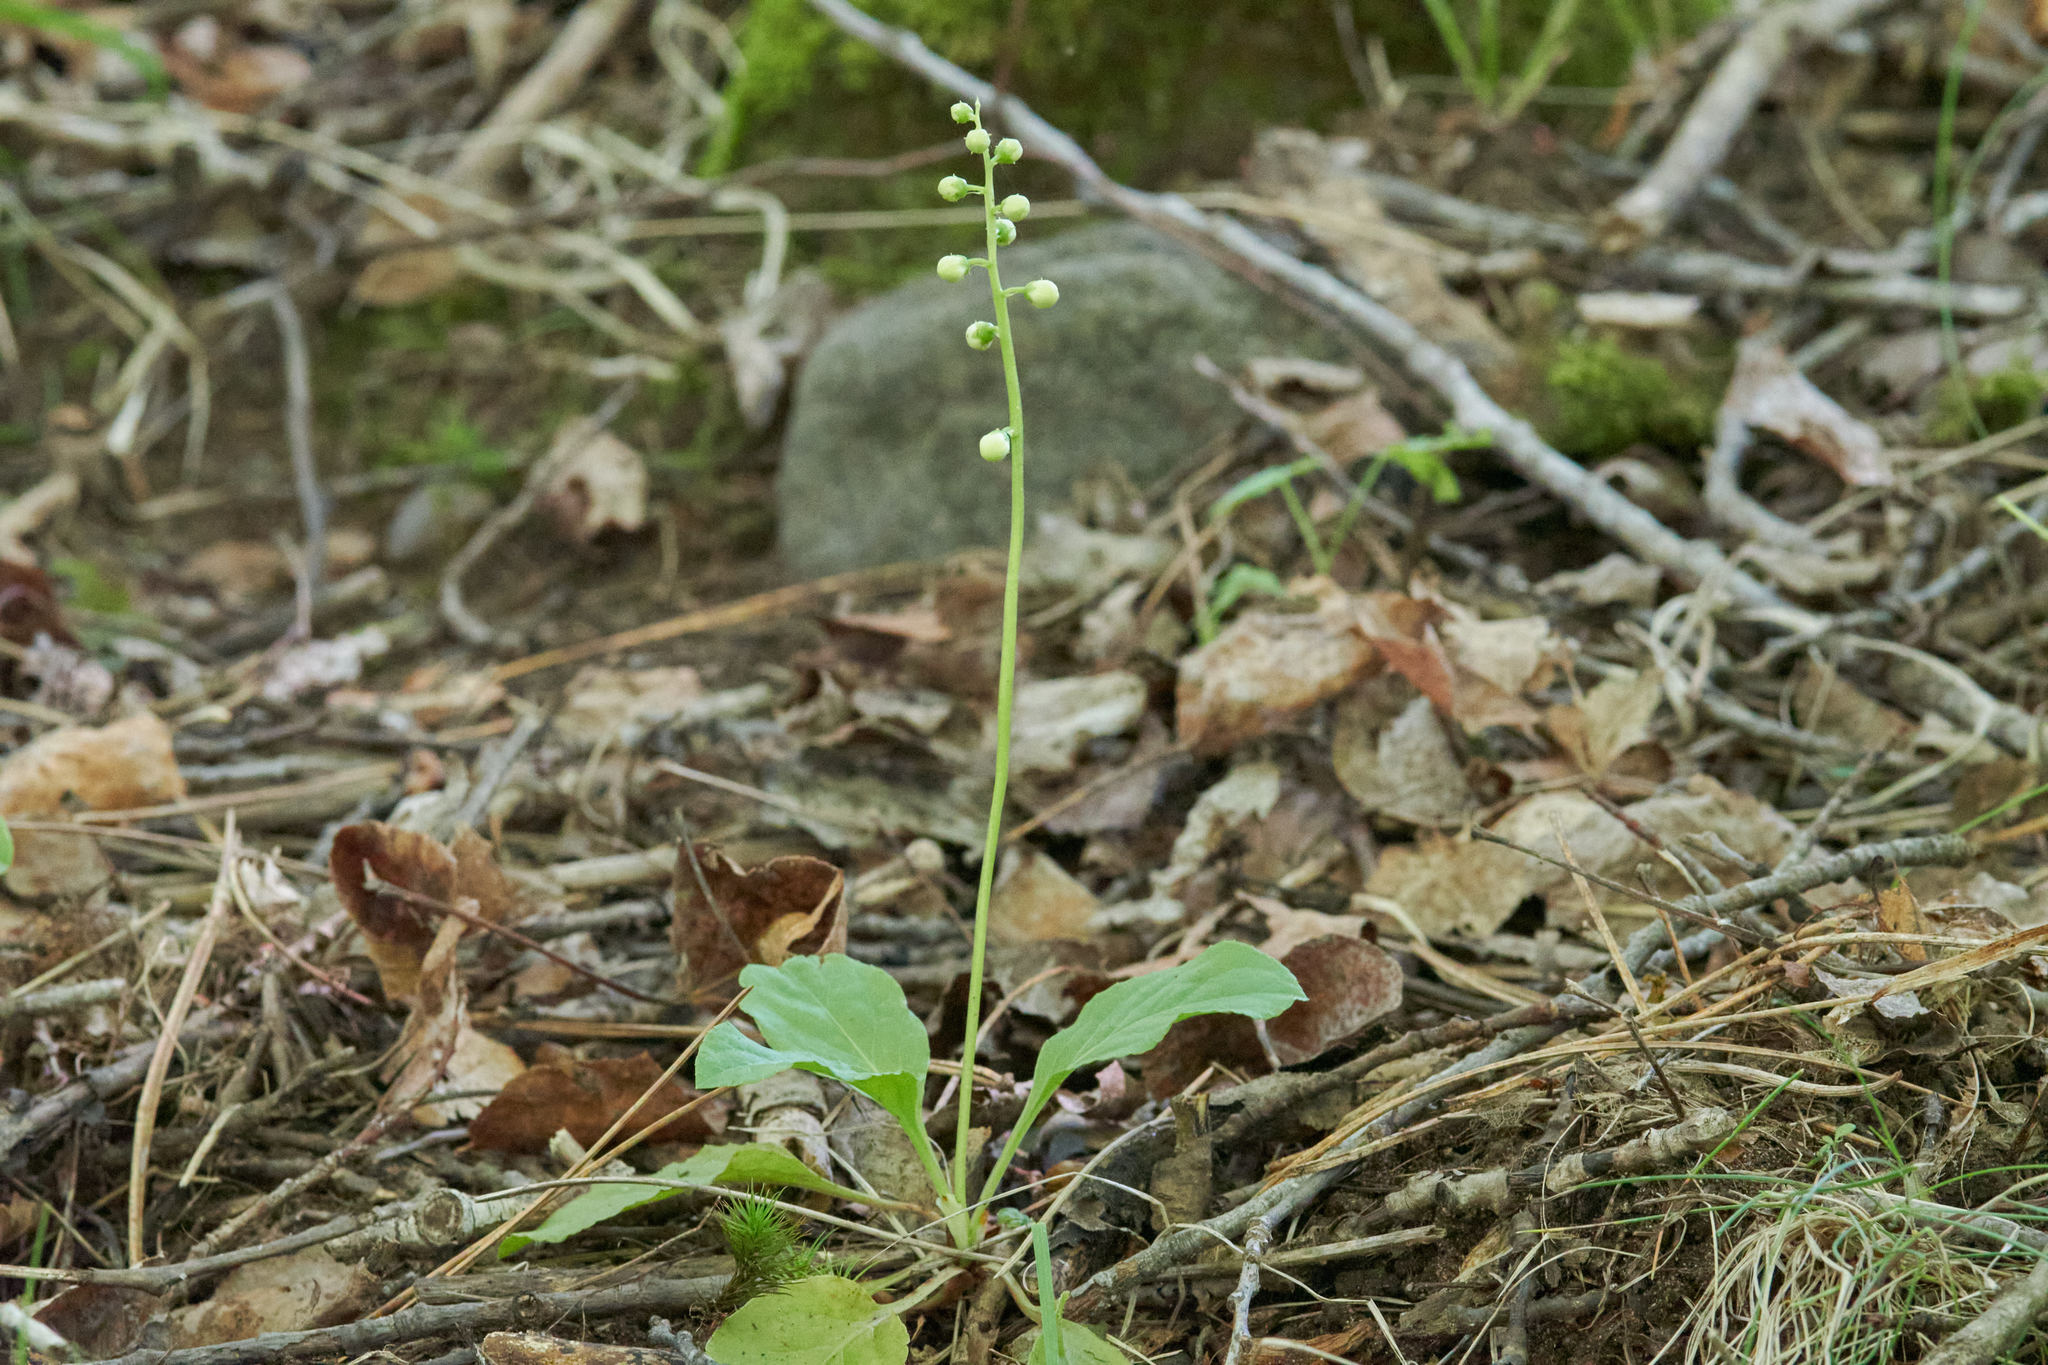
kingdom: Plantae
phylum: Tracheophyta
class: Magnoliopsida
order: Ericales
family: Ericaceae
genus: Pyrola
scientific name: Pyrola elliptica
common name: Shinleaf
